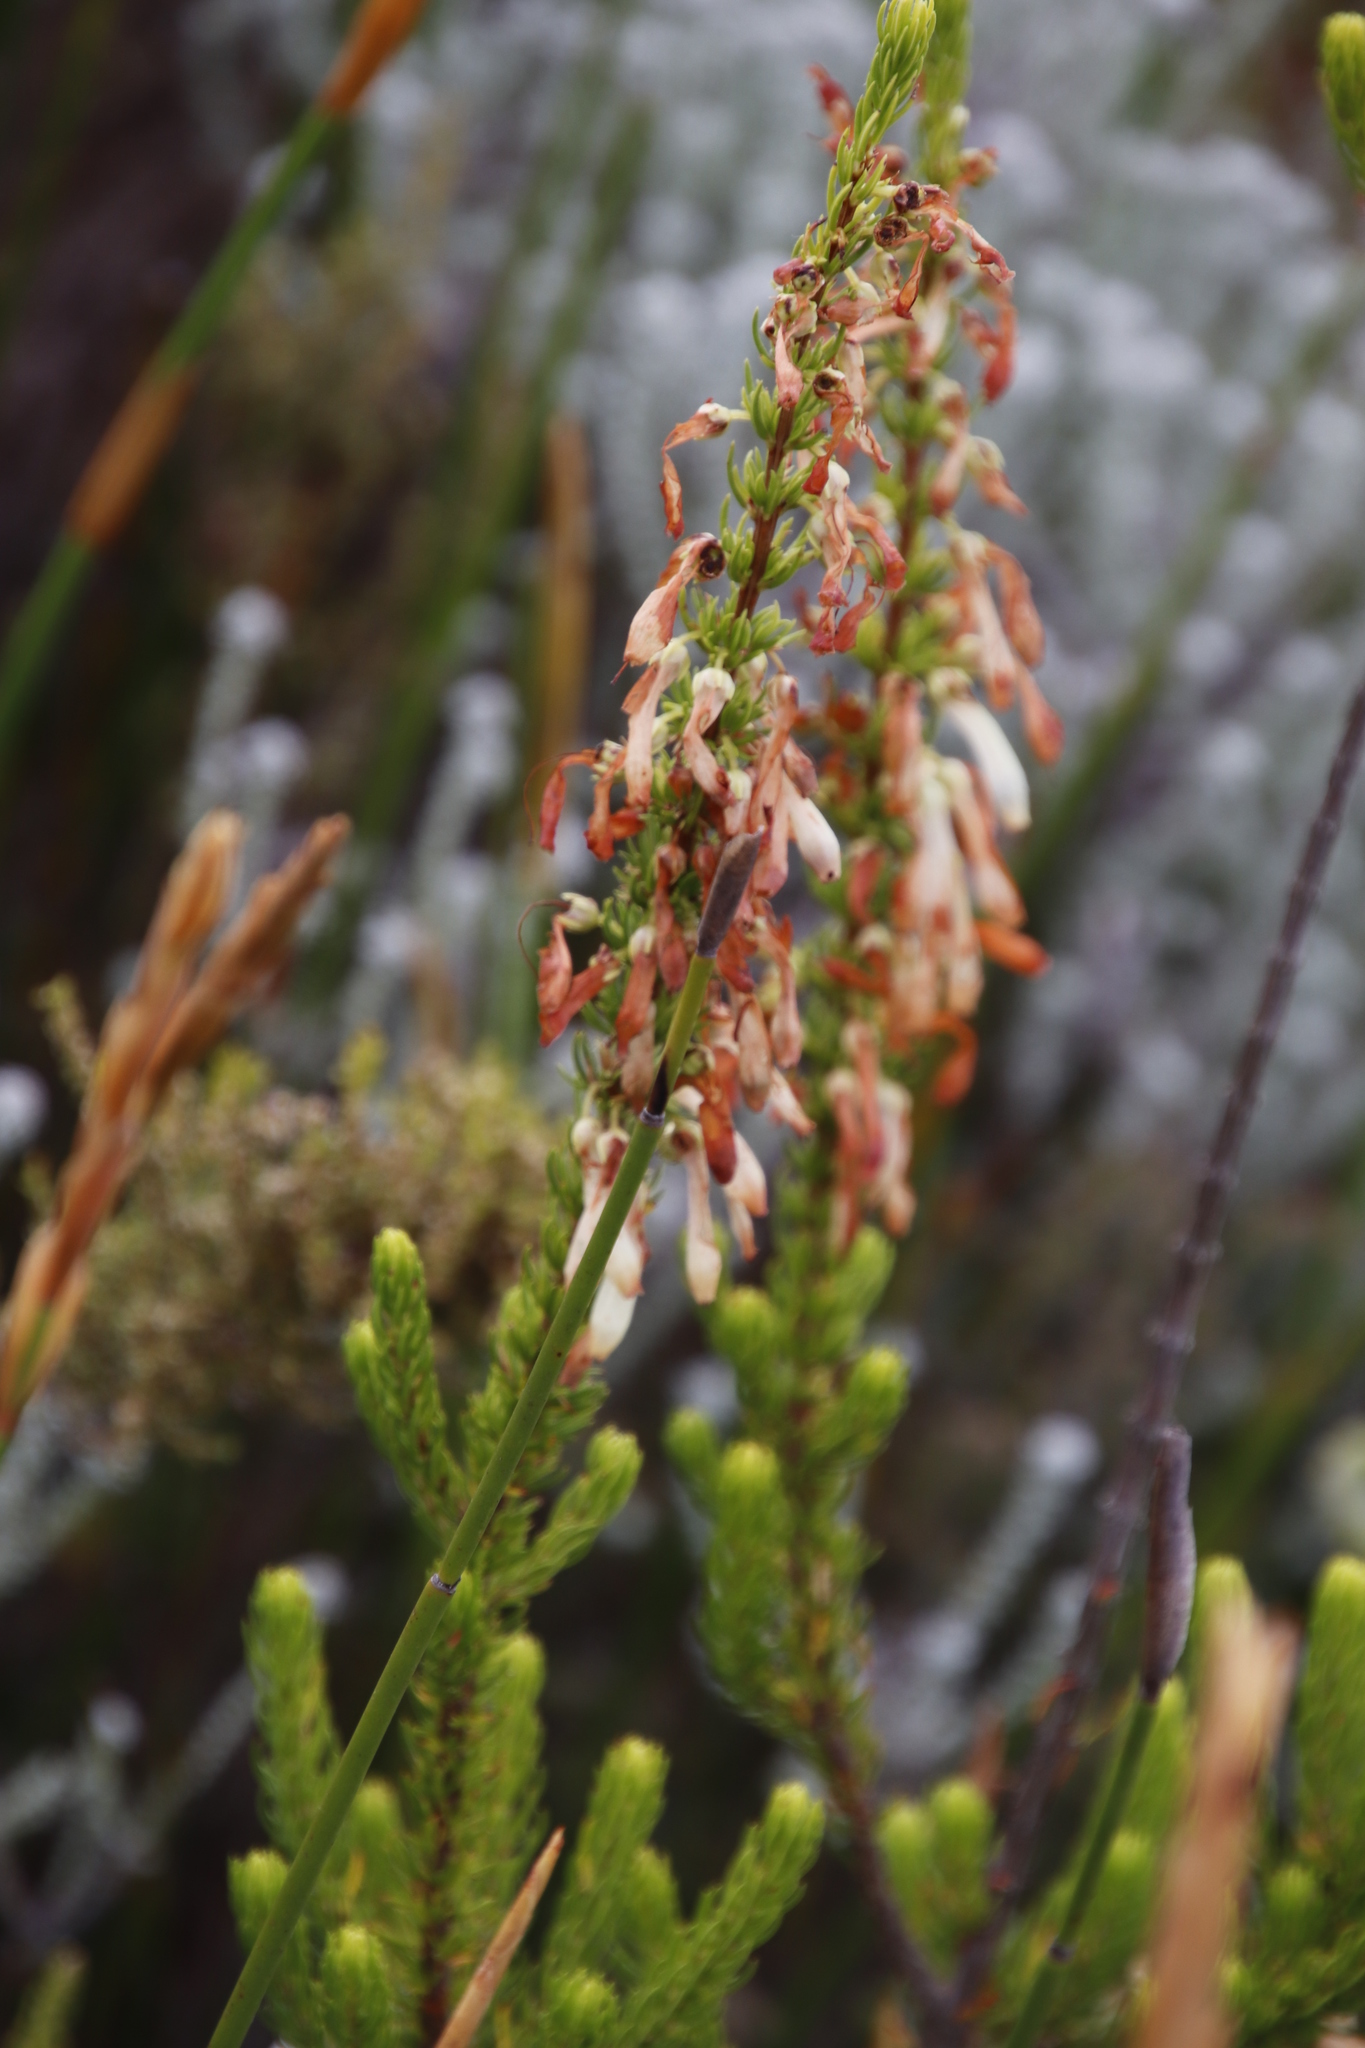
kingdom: Plantae
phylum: Tracheophyta
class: Magnoliopsida
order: Ericales
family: Ericaceae
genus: Erica
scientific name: Erica mammosa
